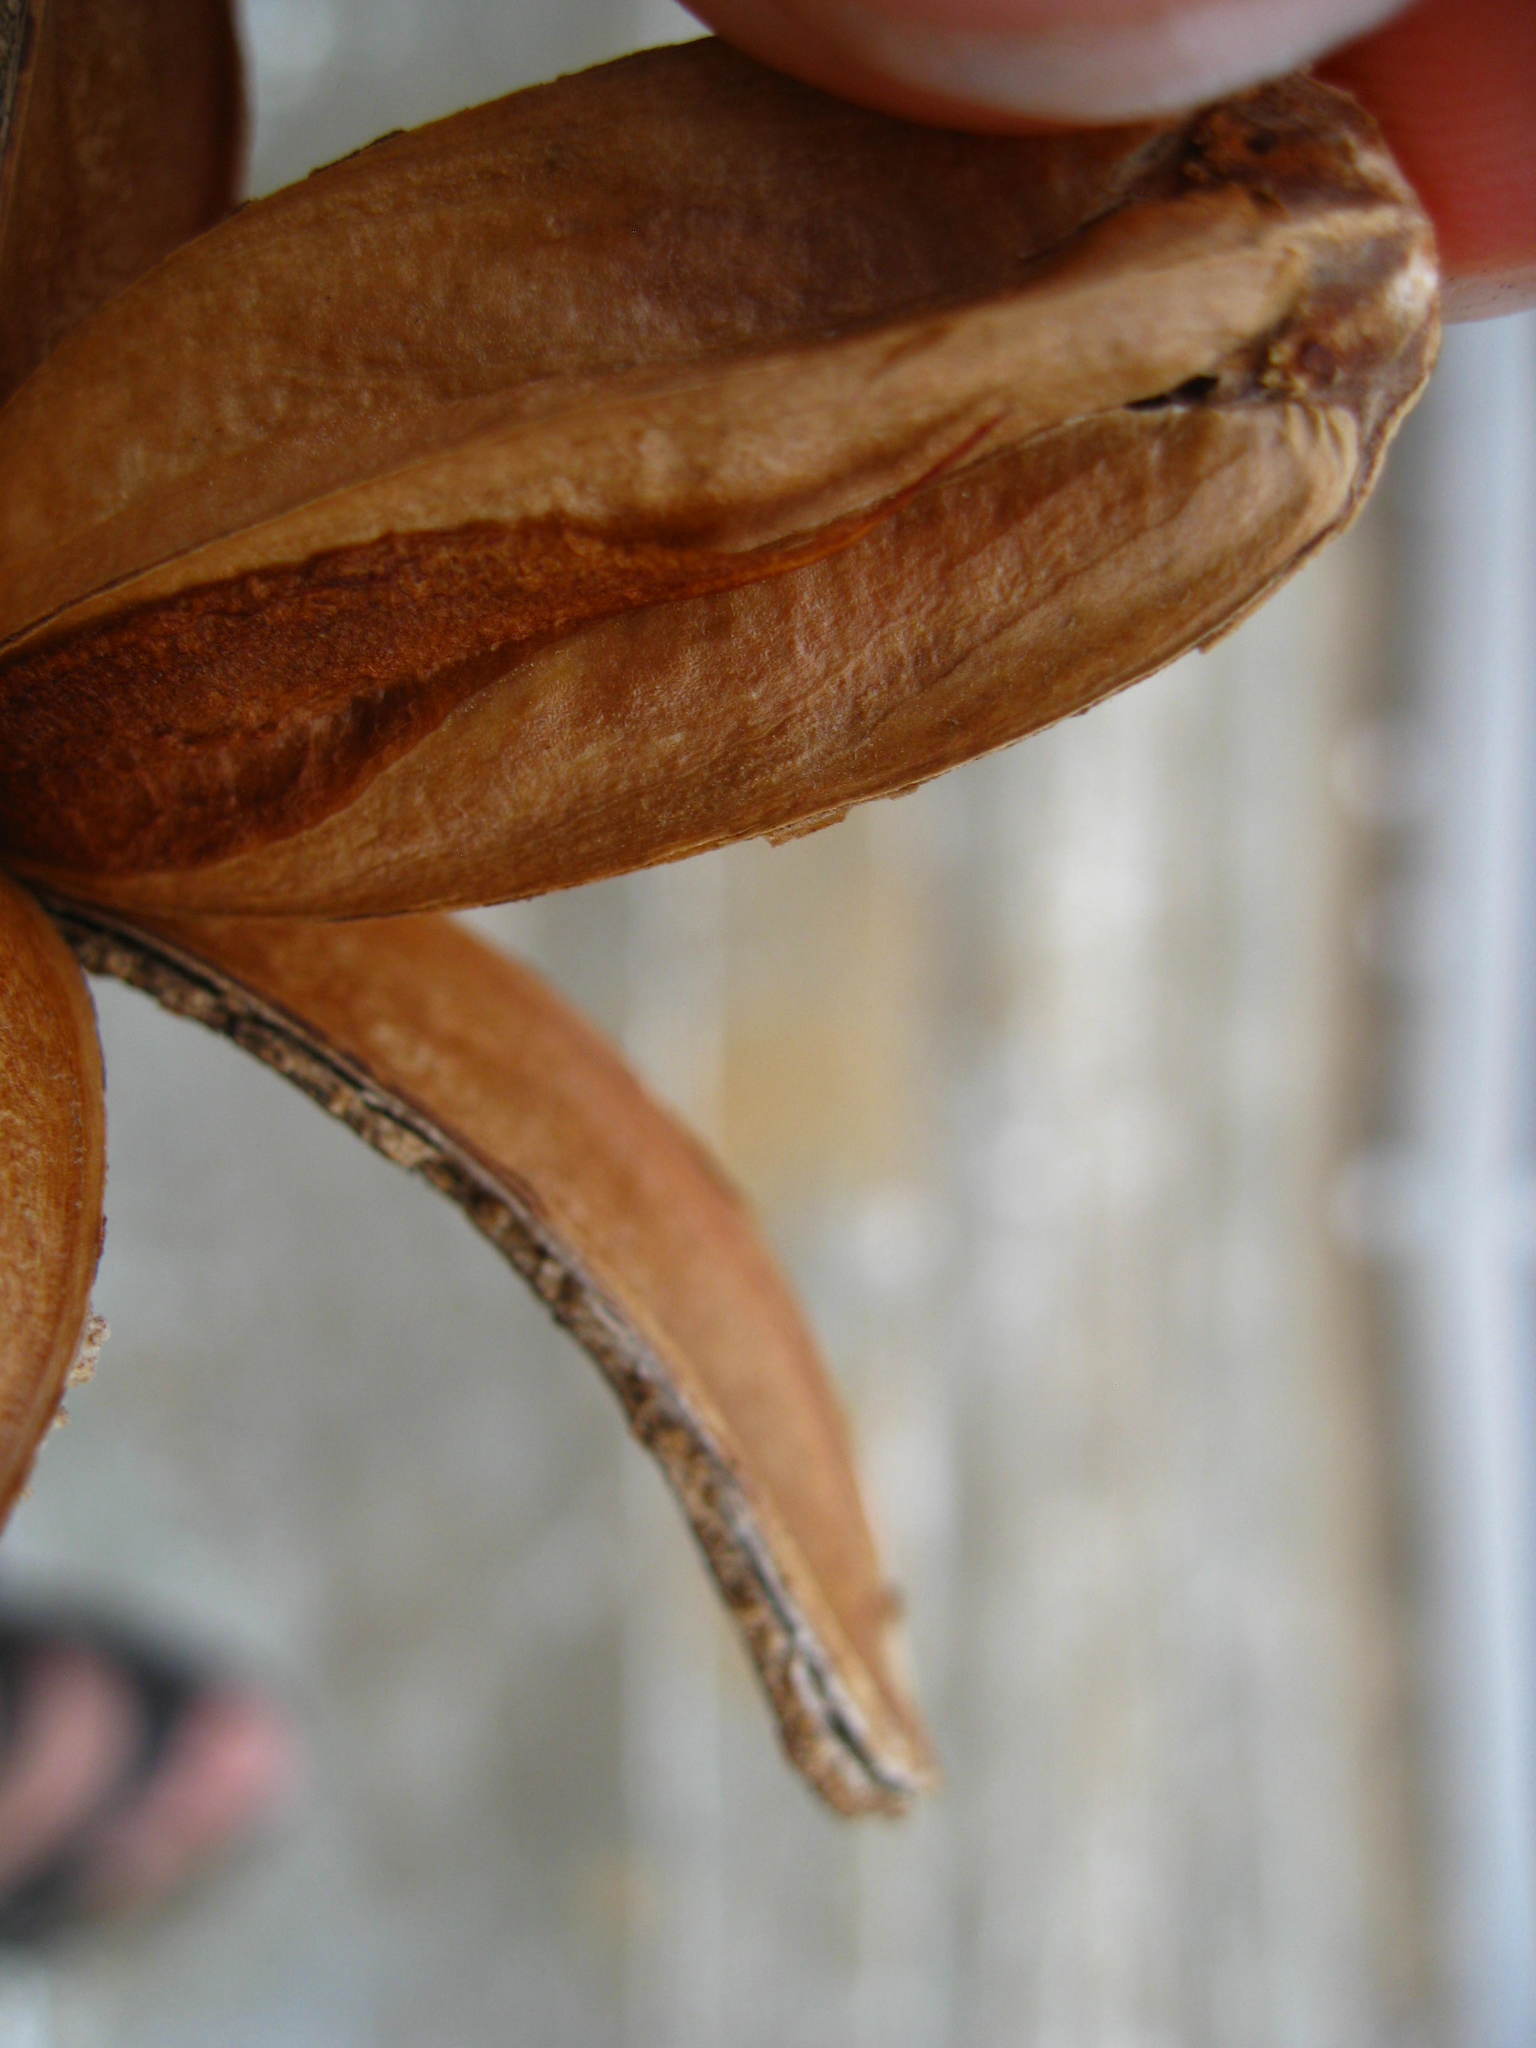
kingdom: Plantae
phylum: Tracheophyta
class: Magnoliopsida
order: Sapindales
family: Meliaceae
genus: Cedrela
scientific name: Cedrela odorata
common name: Red cedar
